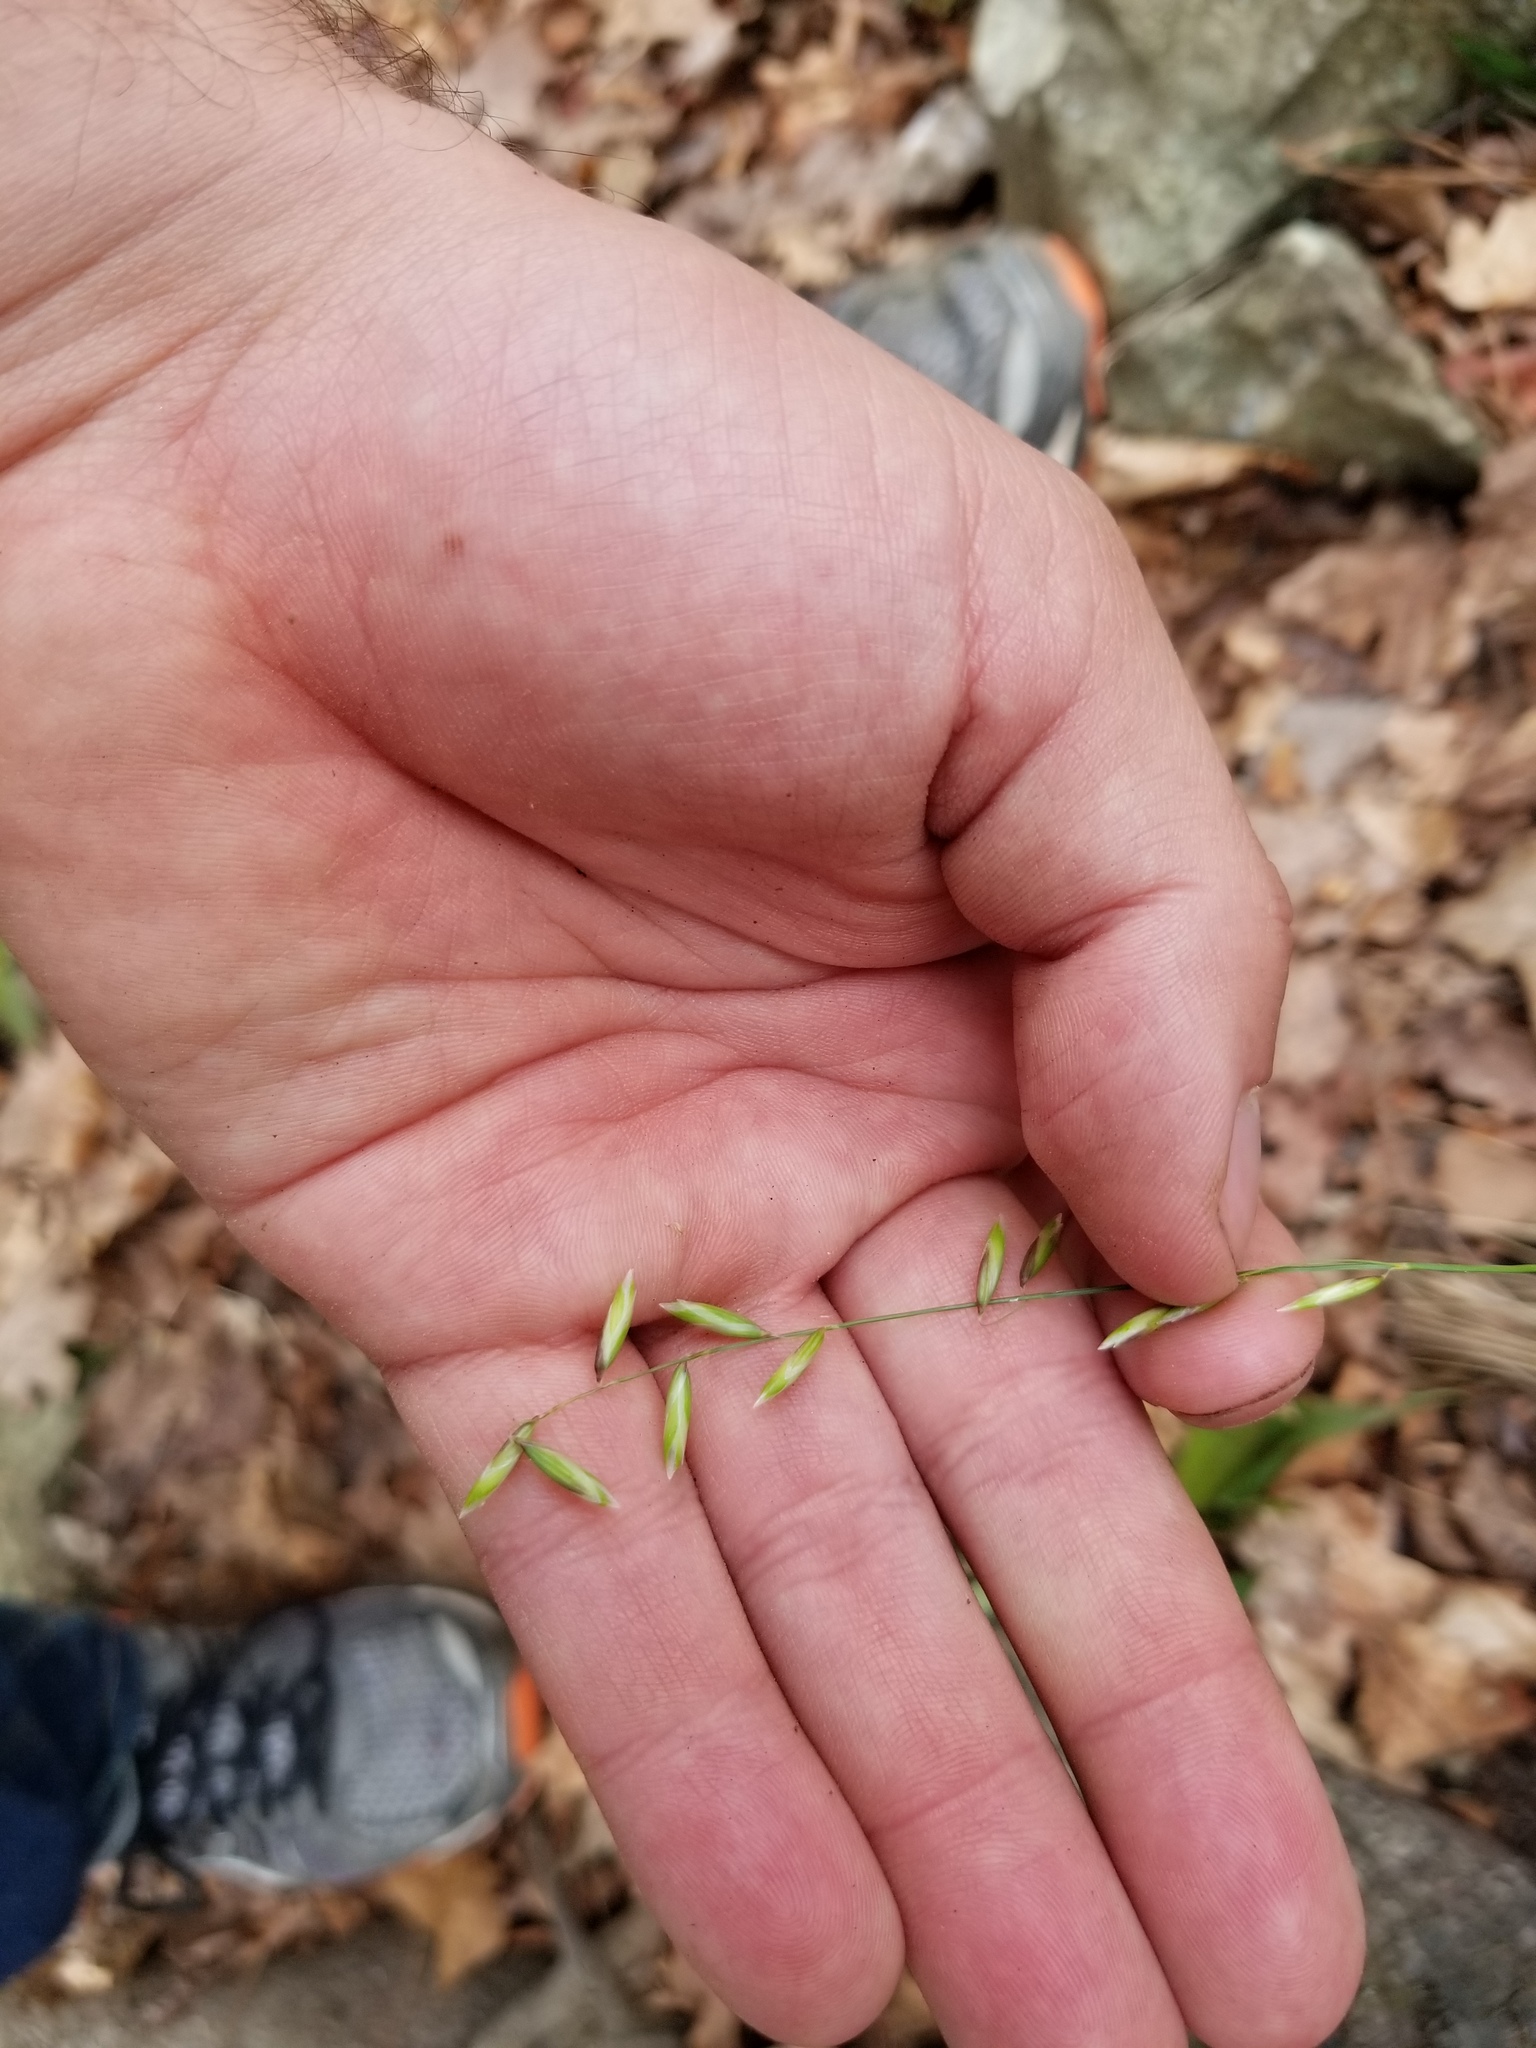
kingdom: Plantae
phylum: Tracheophyta
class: Liliopsida
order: Poales
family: Poaceae
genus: Melica
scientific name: Melica mutica
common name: Two-flower melic
